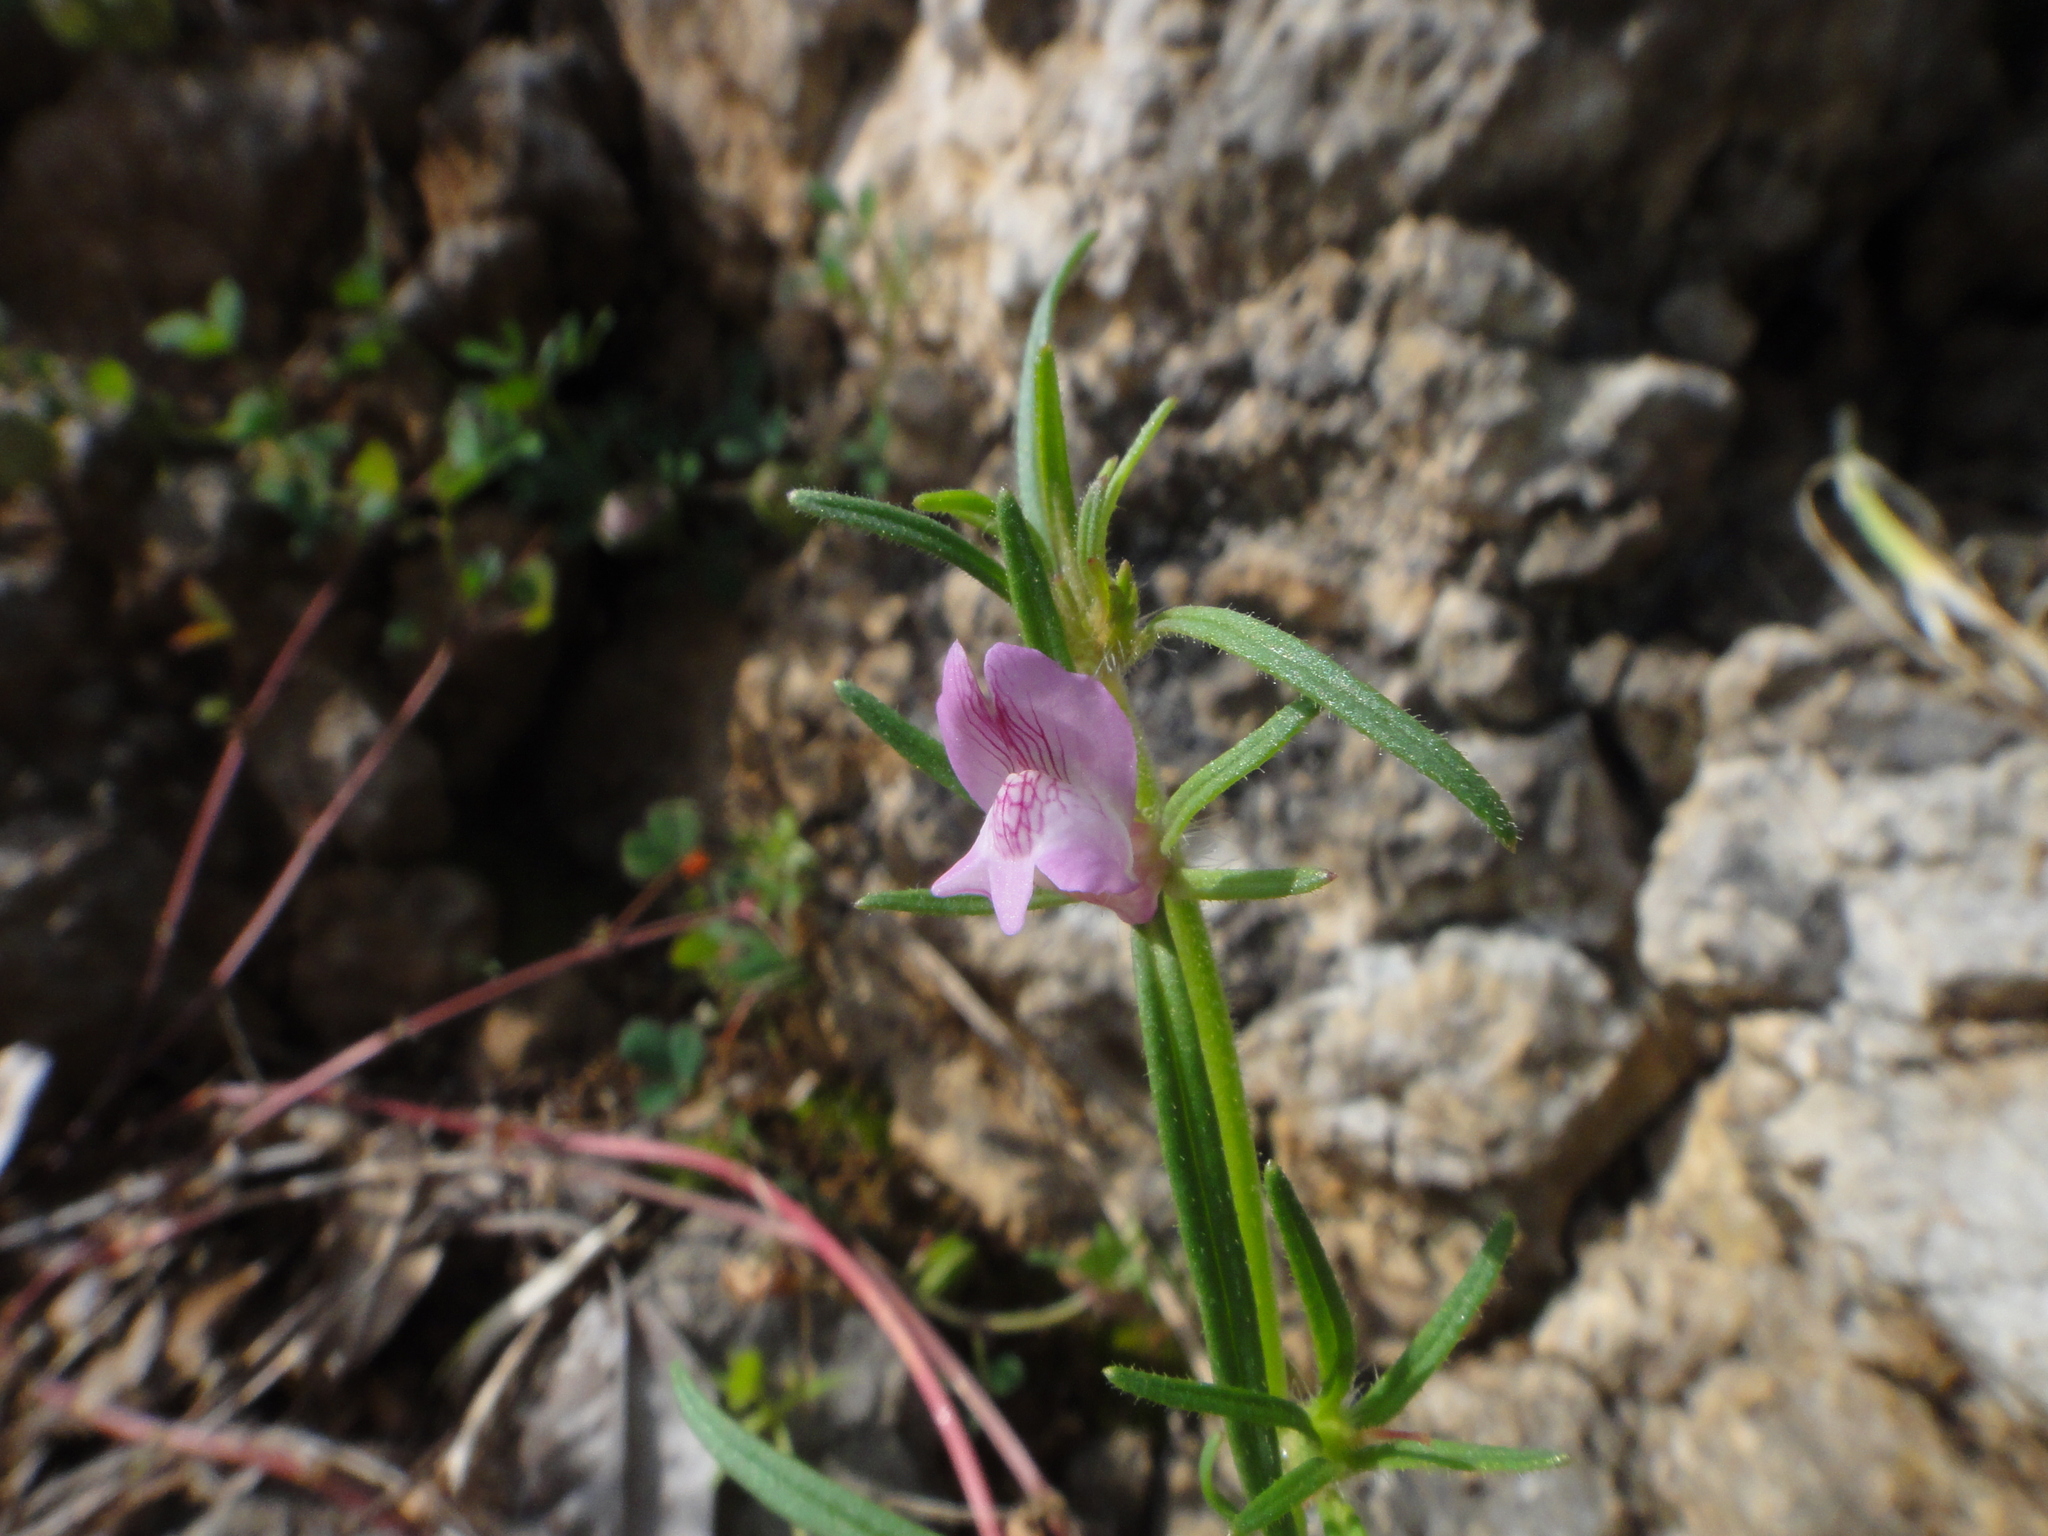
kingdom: Plantae
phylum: Tracheophyta
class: Magnoliopsida
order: Lamiales
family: Plantaginaceae
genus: Misopates
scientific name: Misopates orontium
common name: Weasel's-snout
